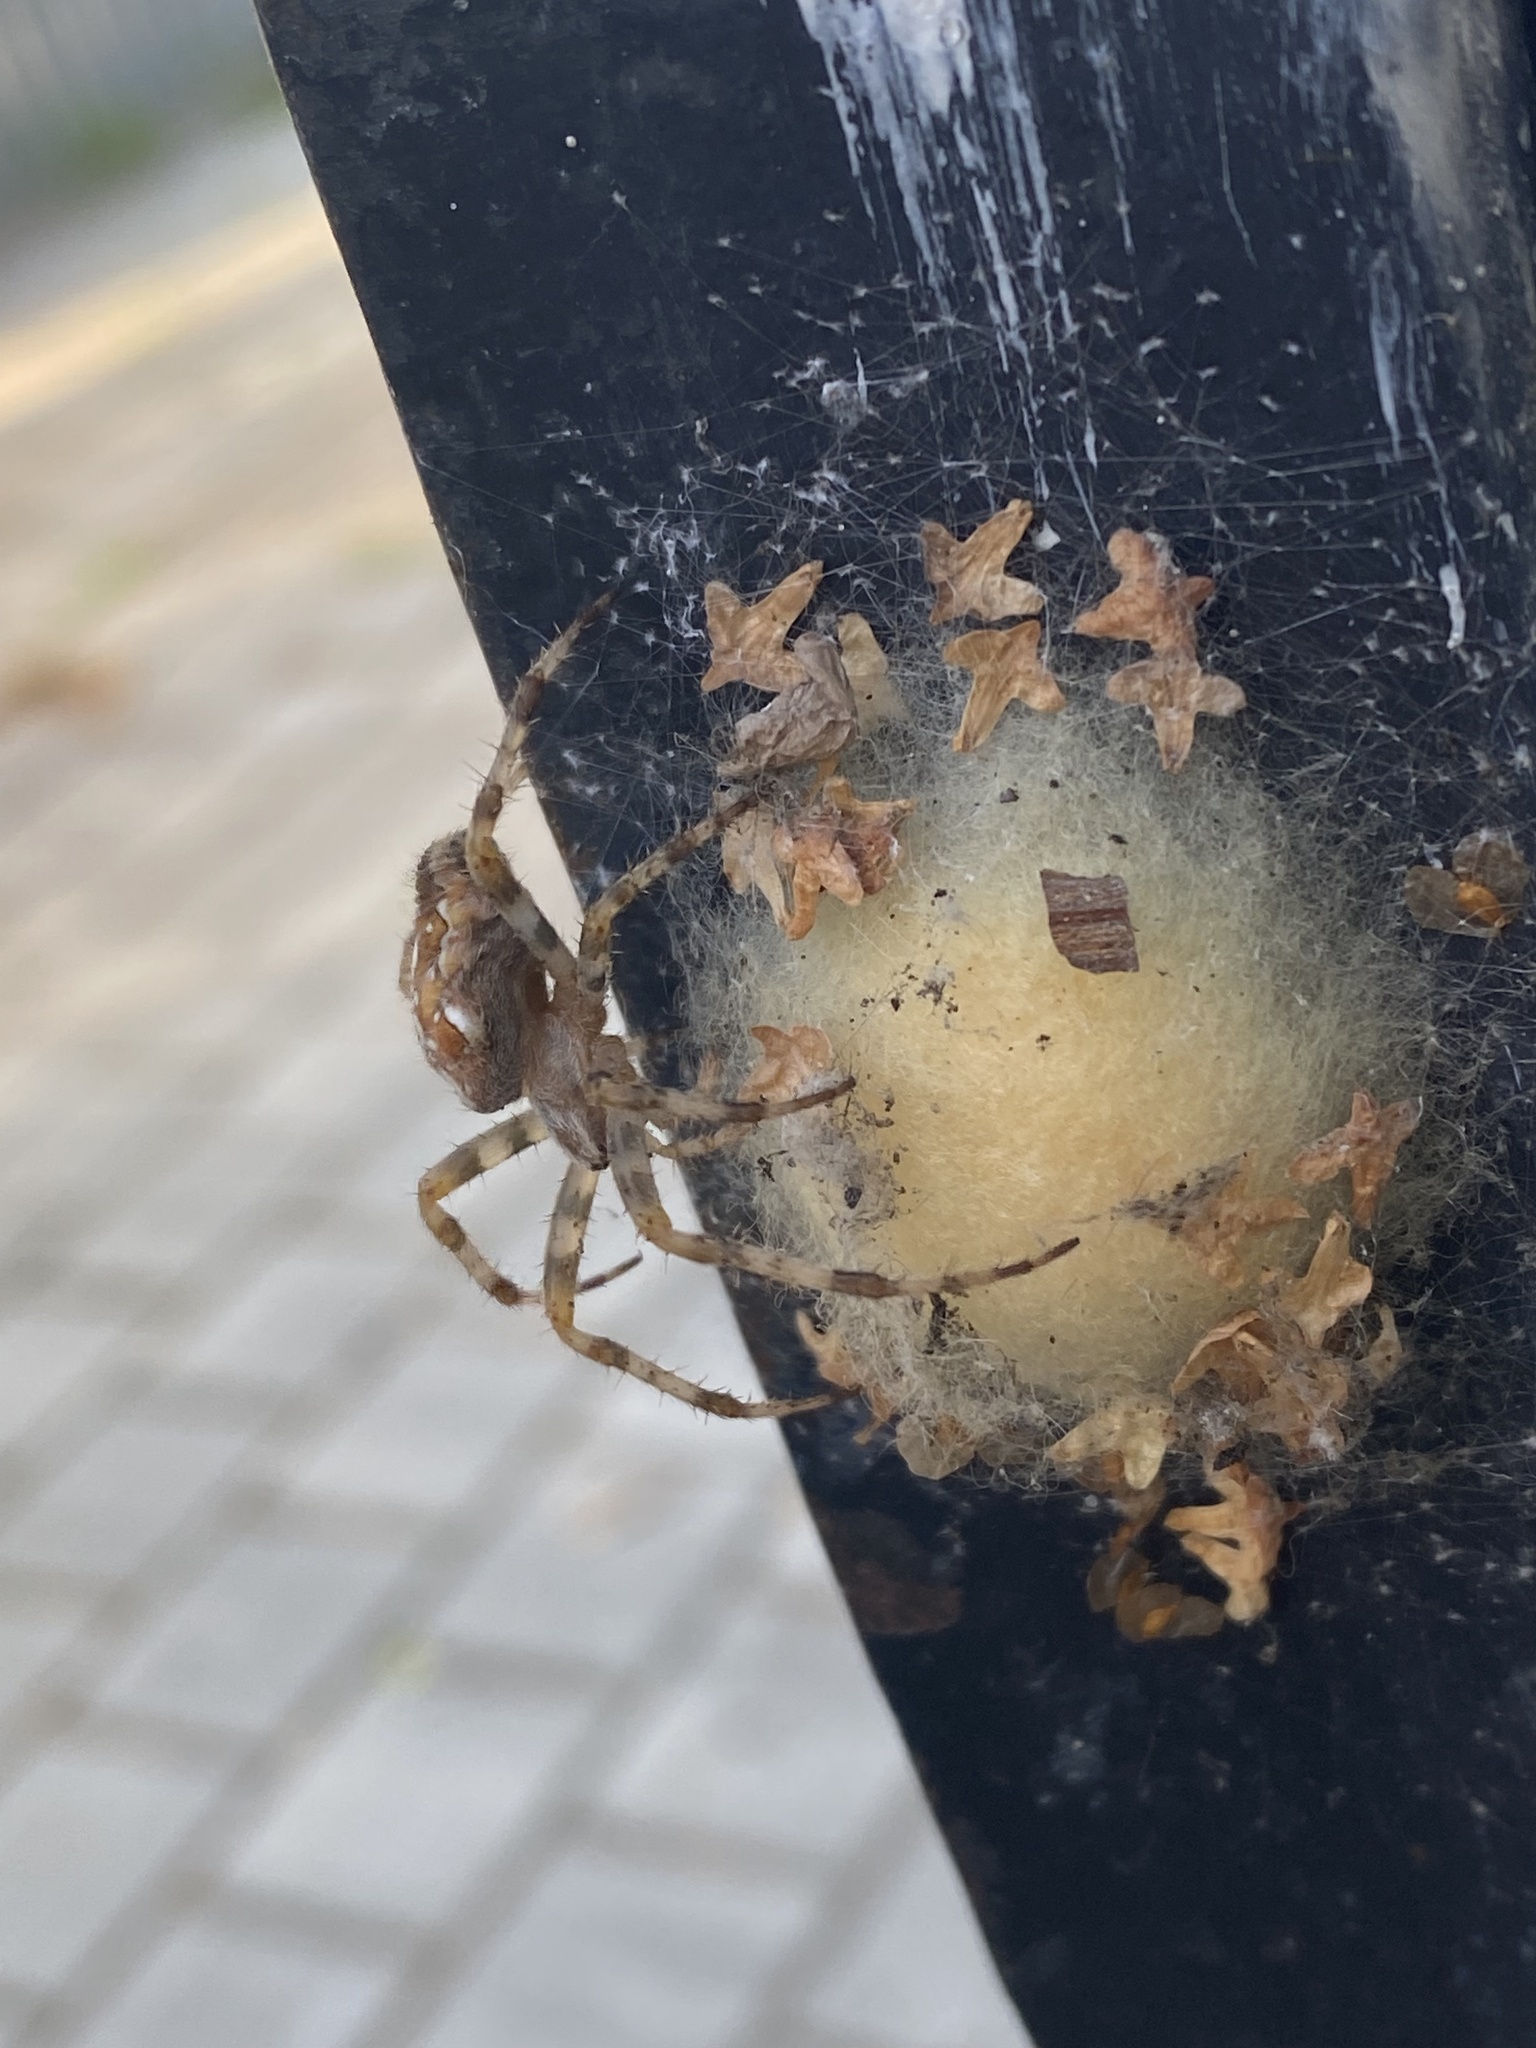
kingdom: Animalia
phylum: Arthropoda
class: Arachnida
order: Araneae
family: Araneidae
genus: Araneus
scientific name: Araneus diadematus
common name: Cross orbweaver
